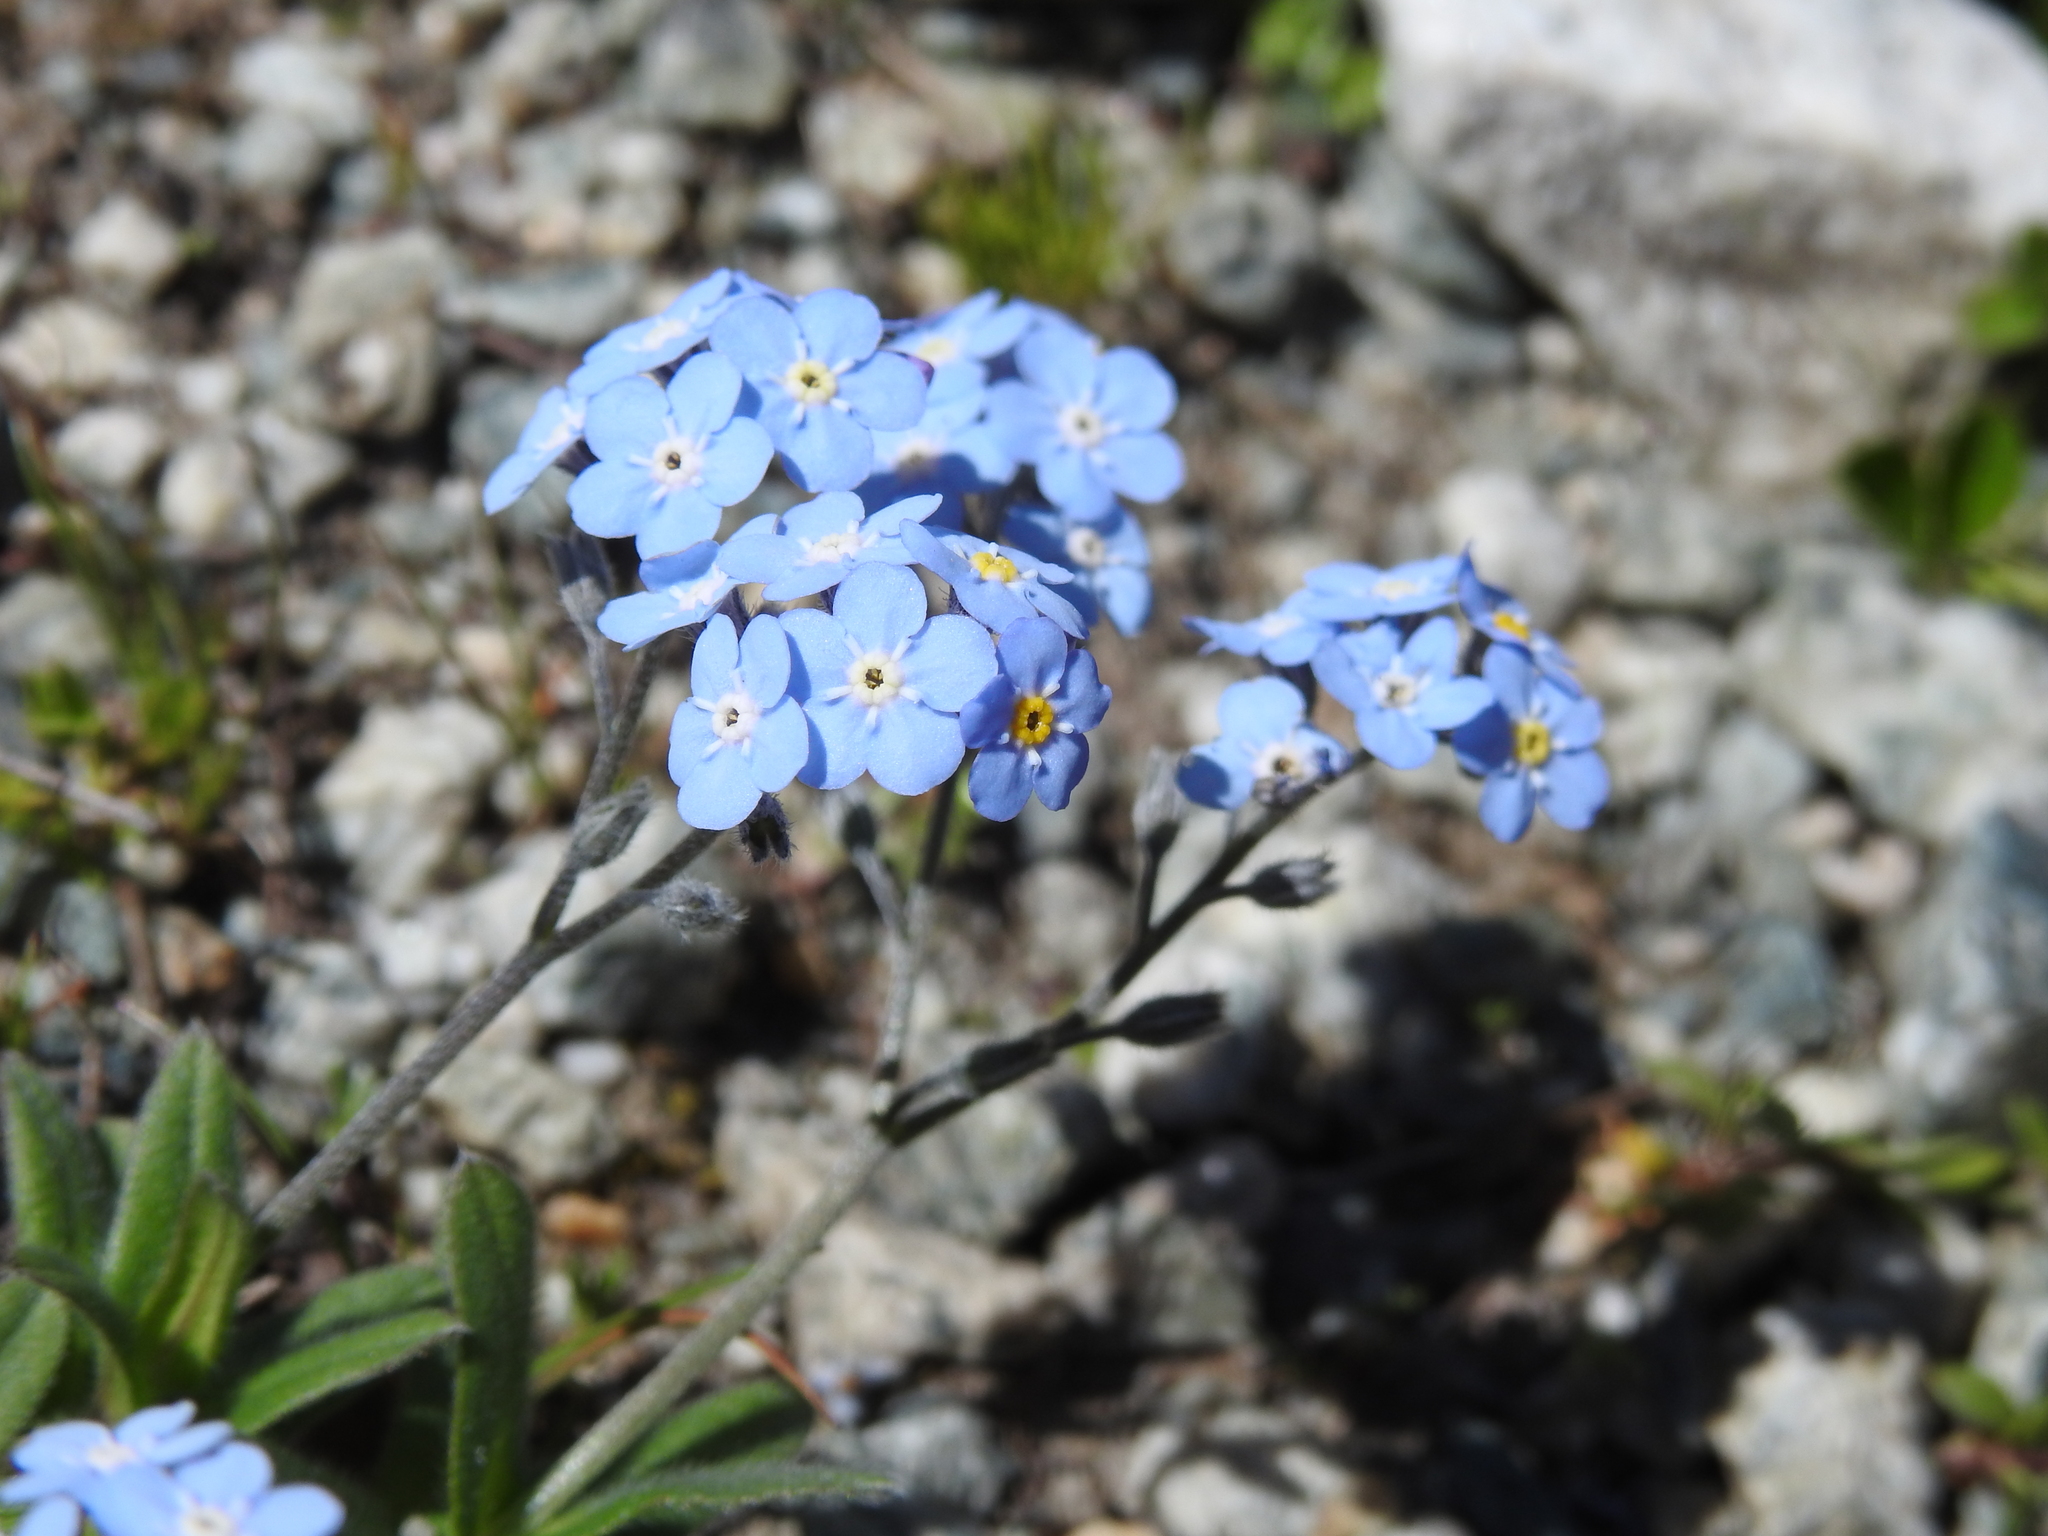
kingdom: Plantae
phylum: Tracheophyta
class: Magnoliopsida
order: Boraginales
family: Boraginaceae
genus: Myosotis
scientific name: Myosotis alpestris
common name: Alpine forget-me-not
